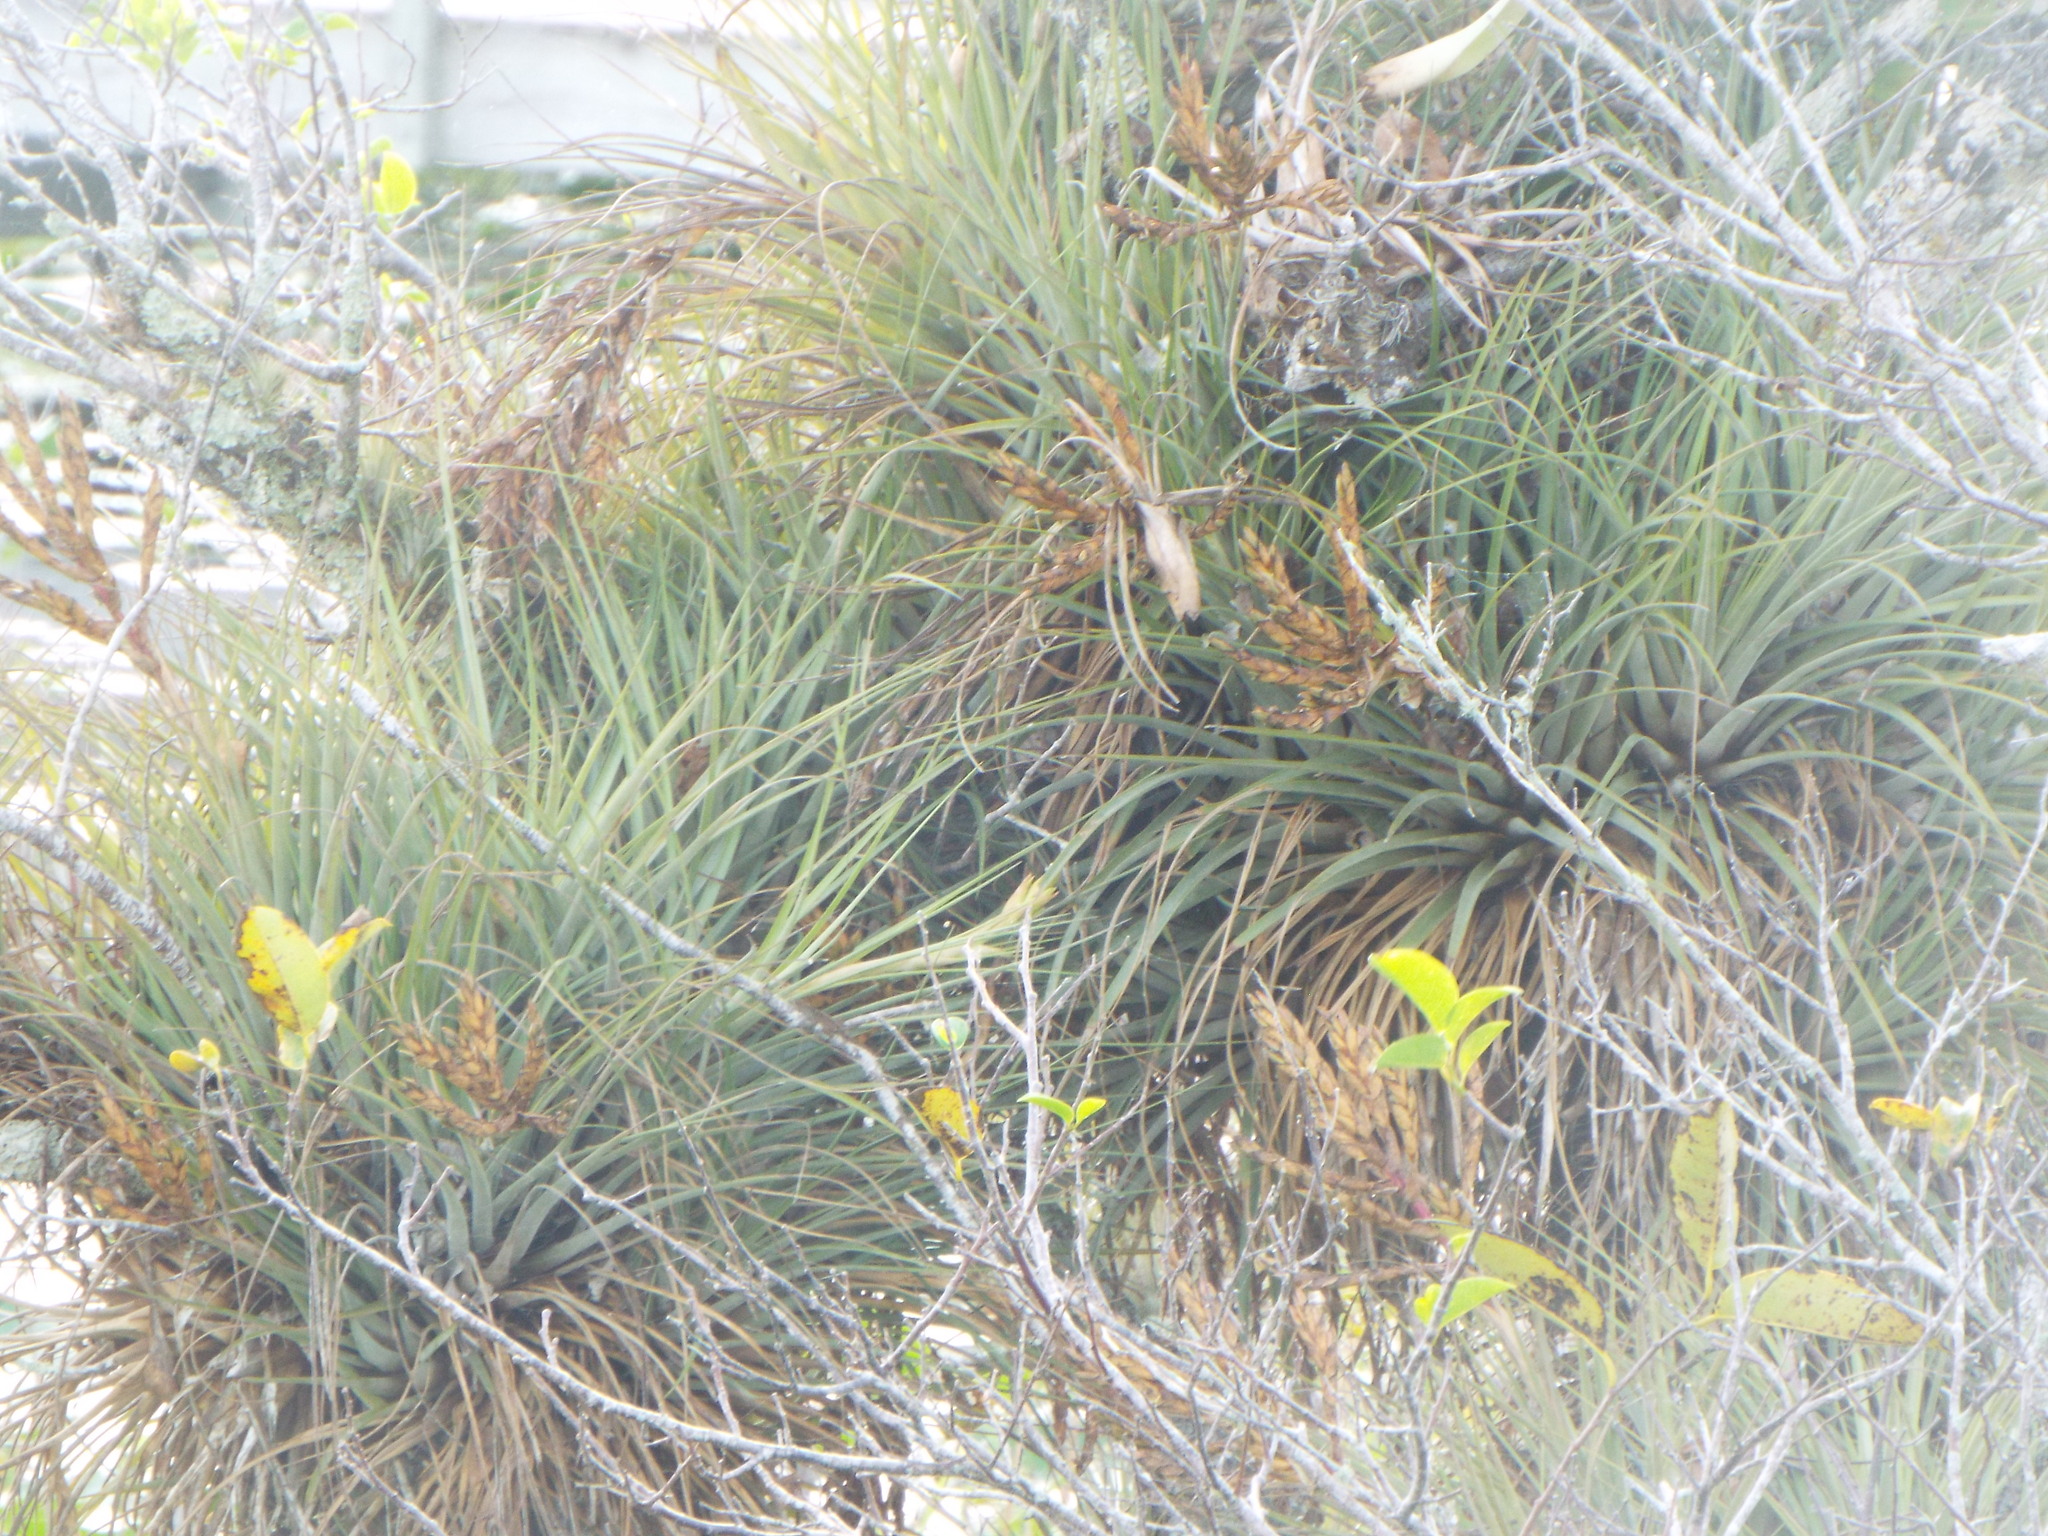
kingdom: Plantae
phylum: Tracheophyta
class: Liliopsida
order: Poales
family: Bromeliaceae
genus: Tillandsia
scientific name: Tillandsia fasciculata
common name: Giant airplant
